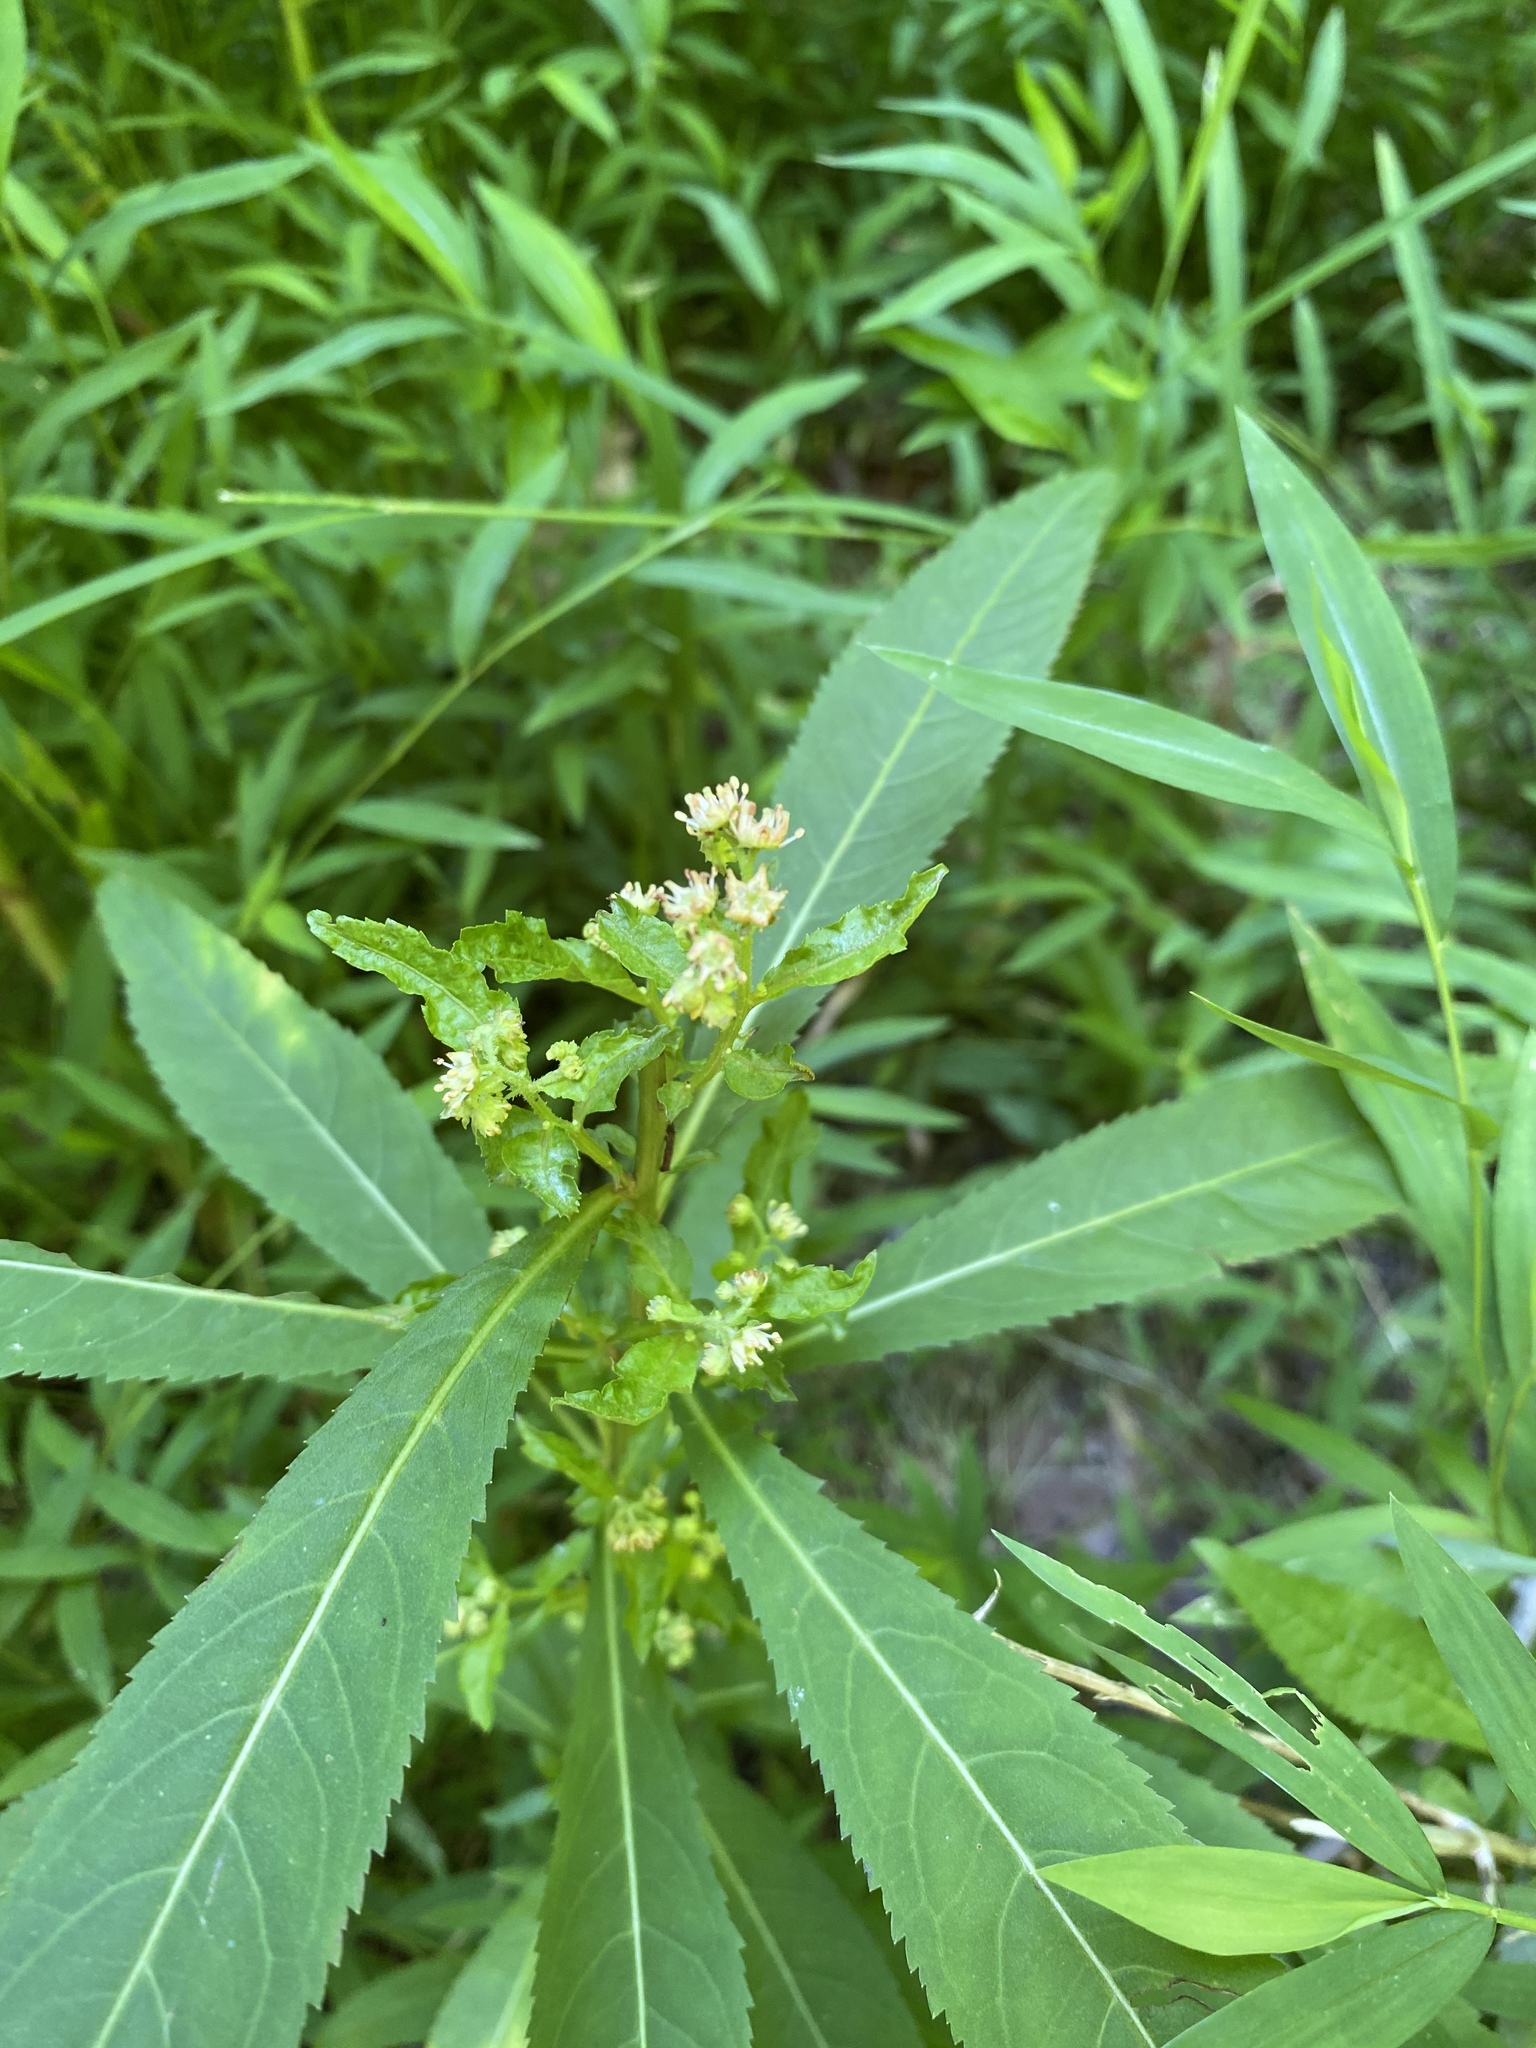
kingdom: Plantae
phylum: Tracheophyta
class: Magnoliopsida
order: Saxifragales
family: Penthoraceae
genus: Penthorum
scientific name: Penthorum sedoides
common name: Ditch stonecrop
